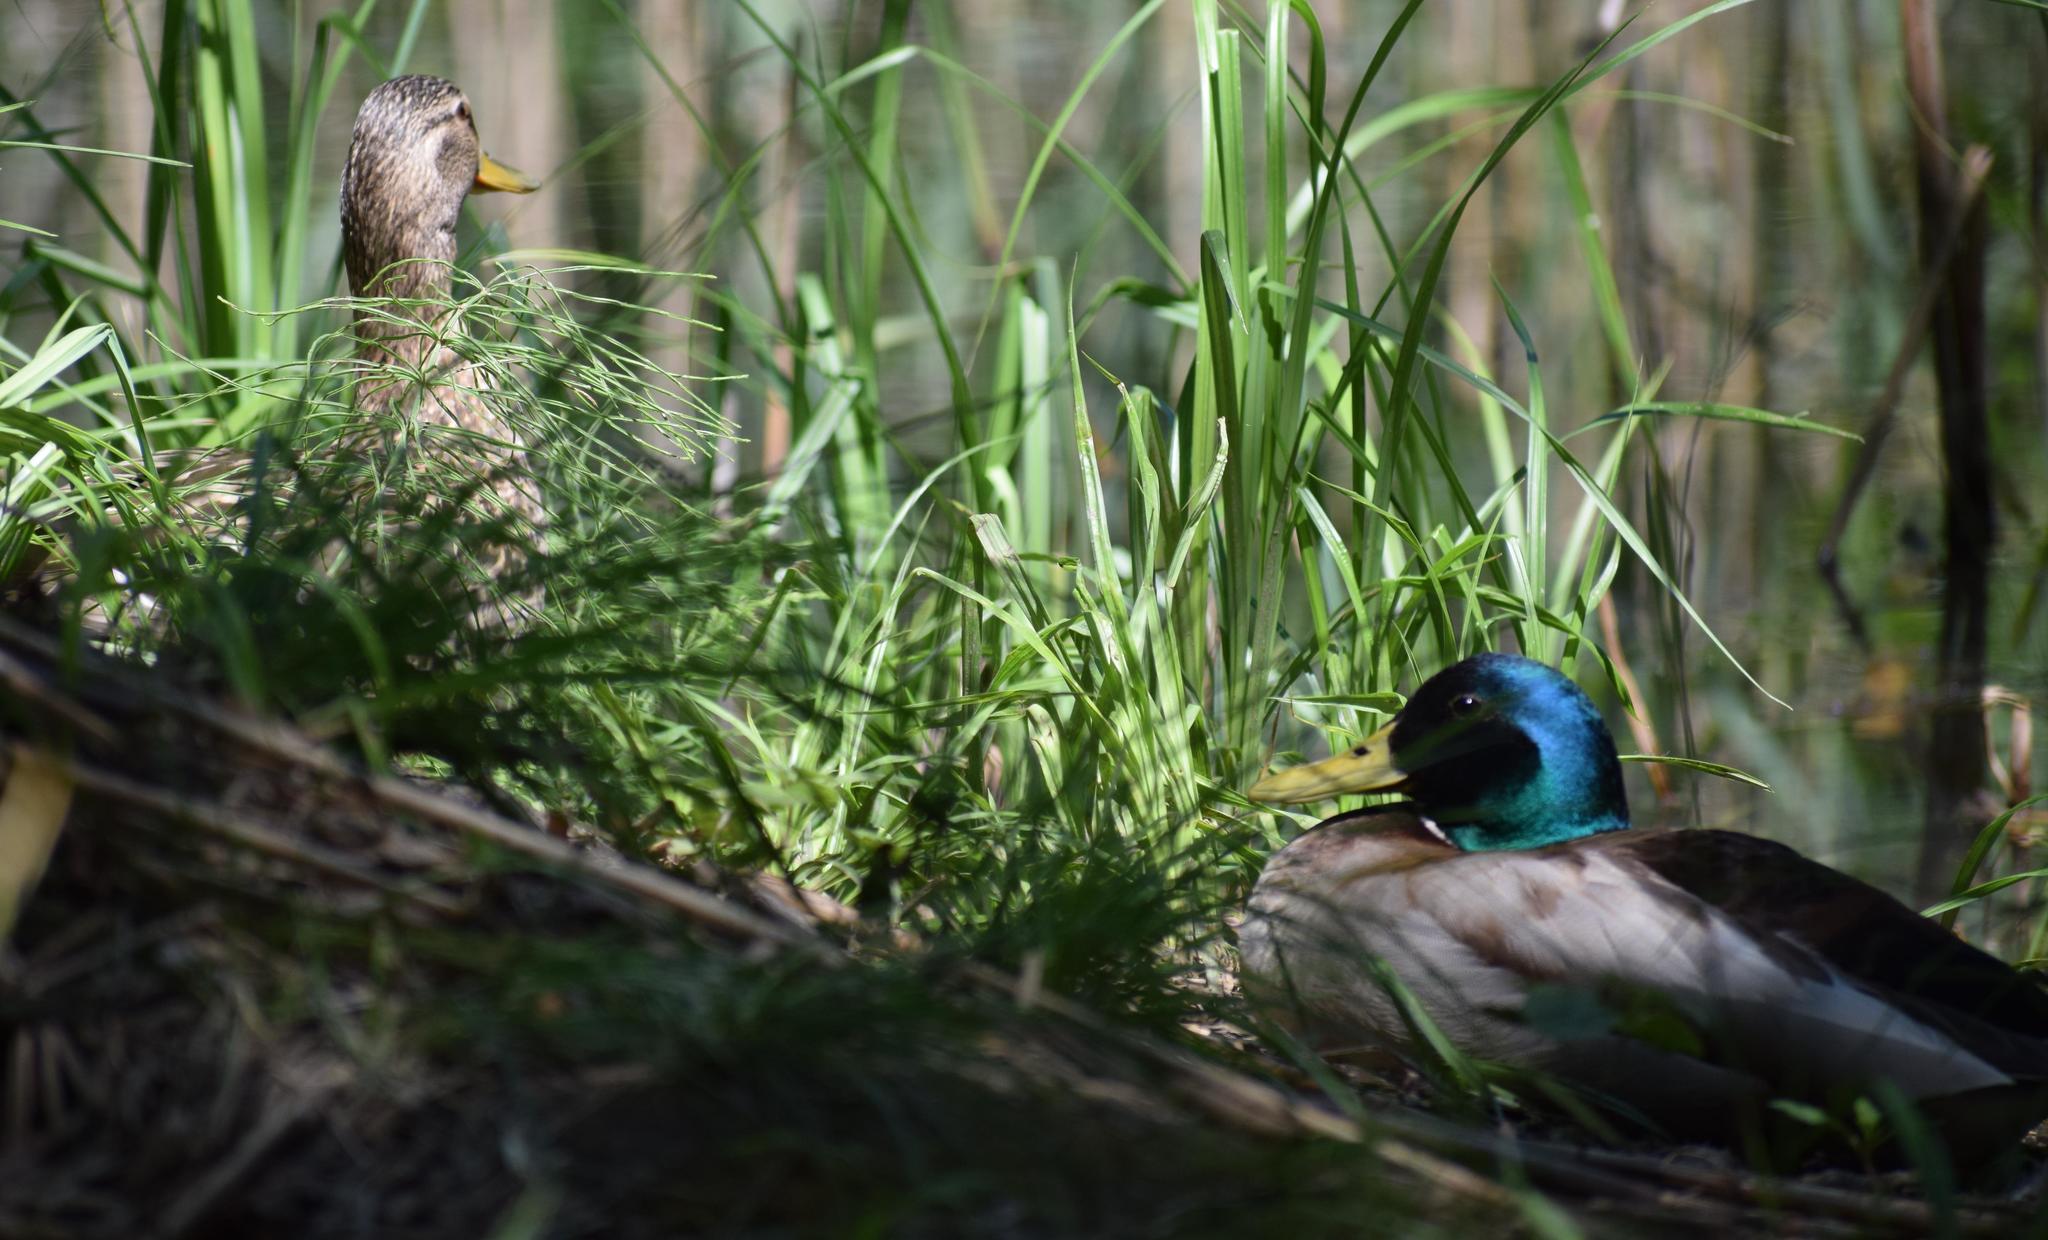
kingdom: Animalia
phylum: Chordata
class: Aves
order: Anseriformes
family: Anatidae
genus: Anas
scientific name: Anas platyrhynchos
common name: Mallard
